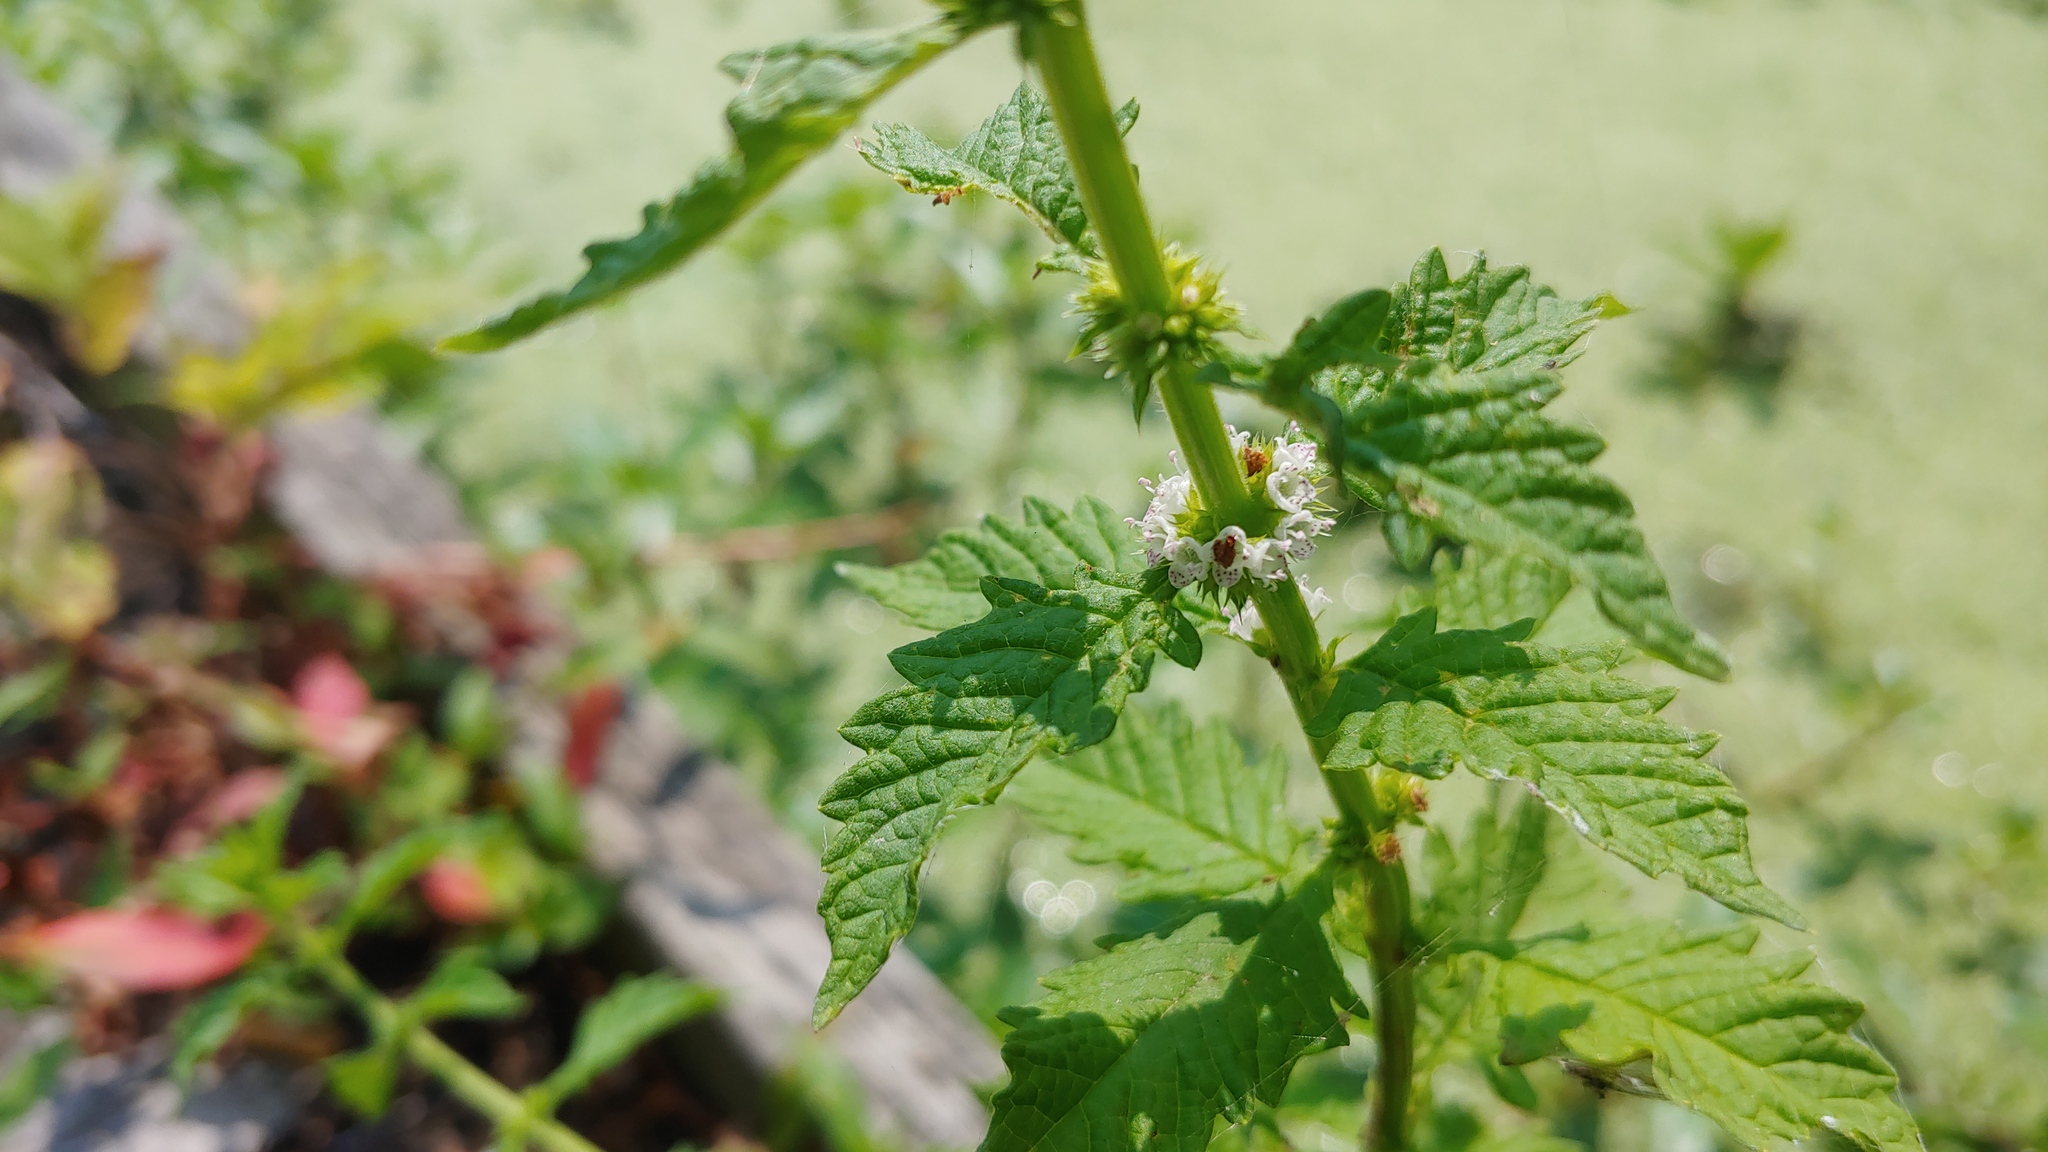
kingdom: Plantae
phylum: Tracheophyta
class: Magnoliopsida
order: Lamiales
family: Lamiaceae
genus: Lycopus
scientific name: Lycopus europaeus
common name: European bugleweed
